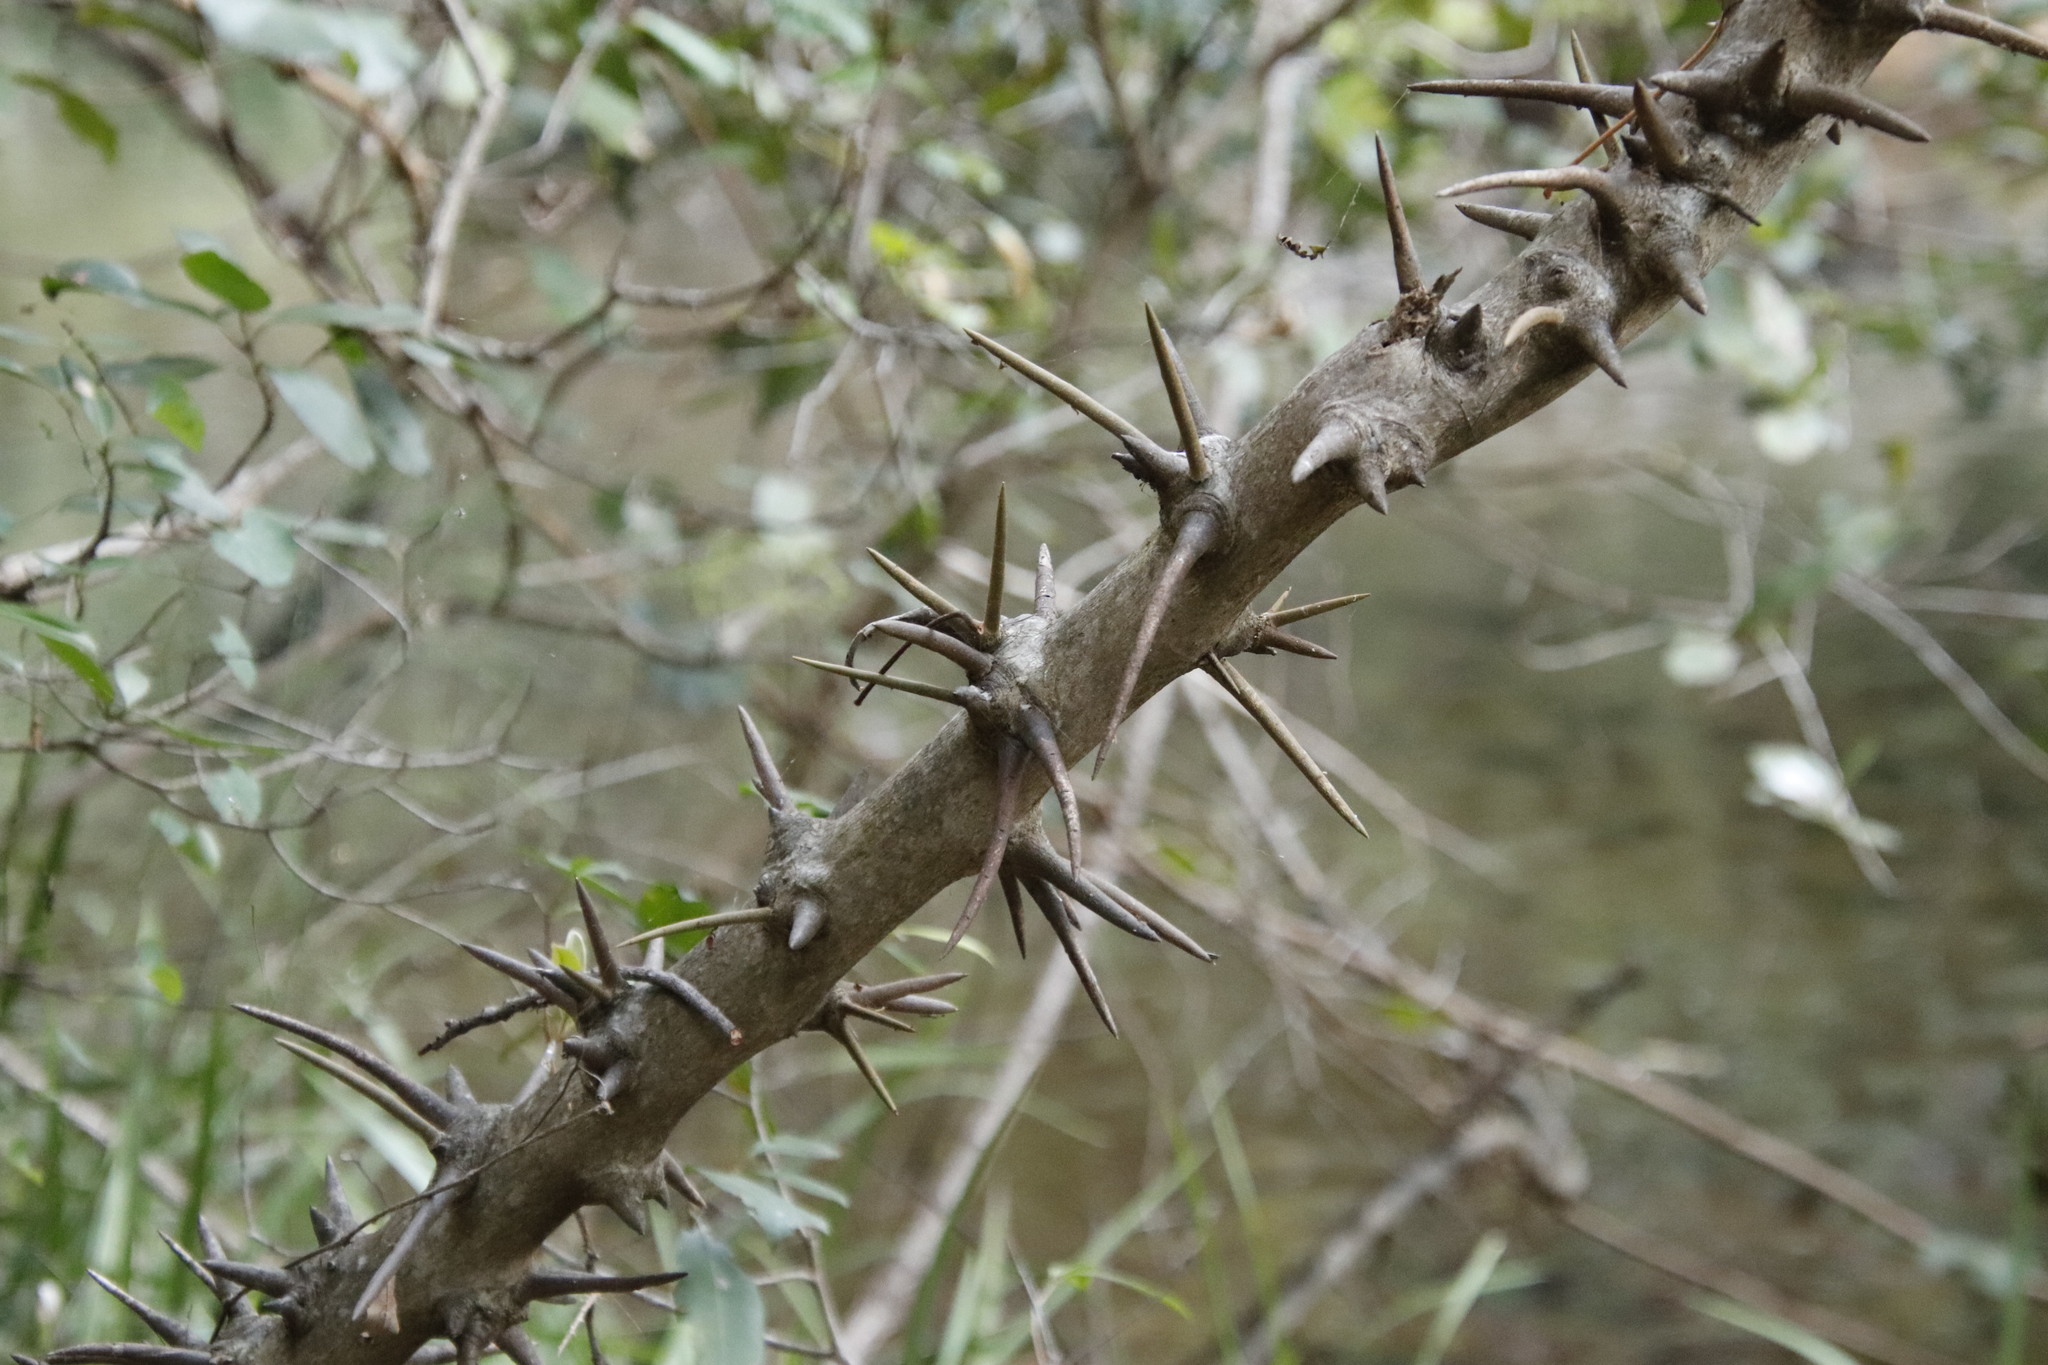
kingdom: Plantae
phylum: Tracheophyta
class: Magnoliopsida
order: Fabales
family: Fabaceae
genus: Dalbergia
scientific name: Dalbergia armata
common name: Hluhluwe climber
